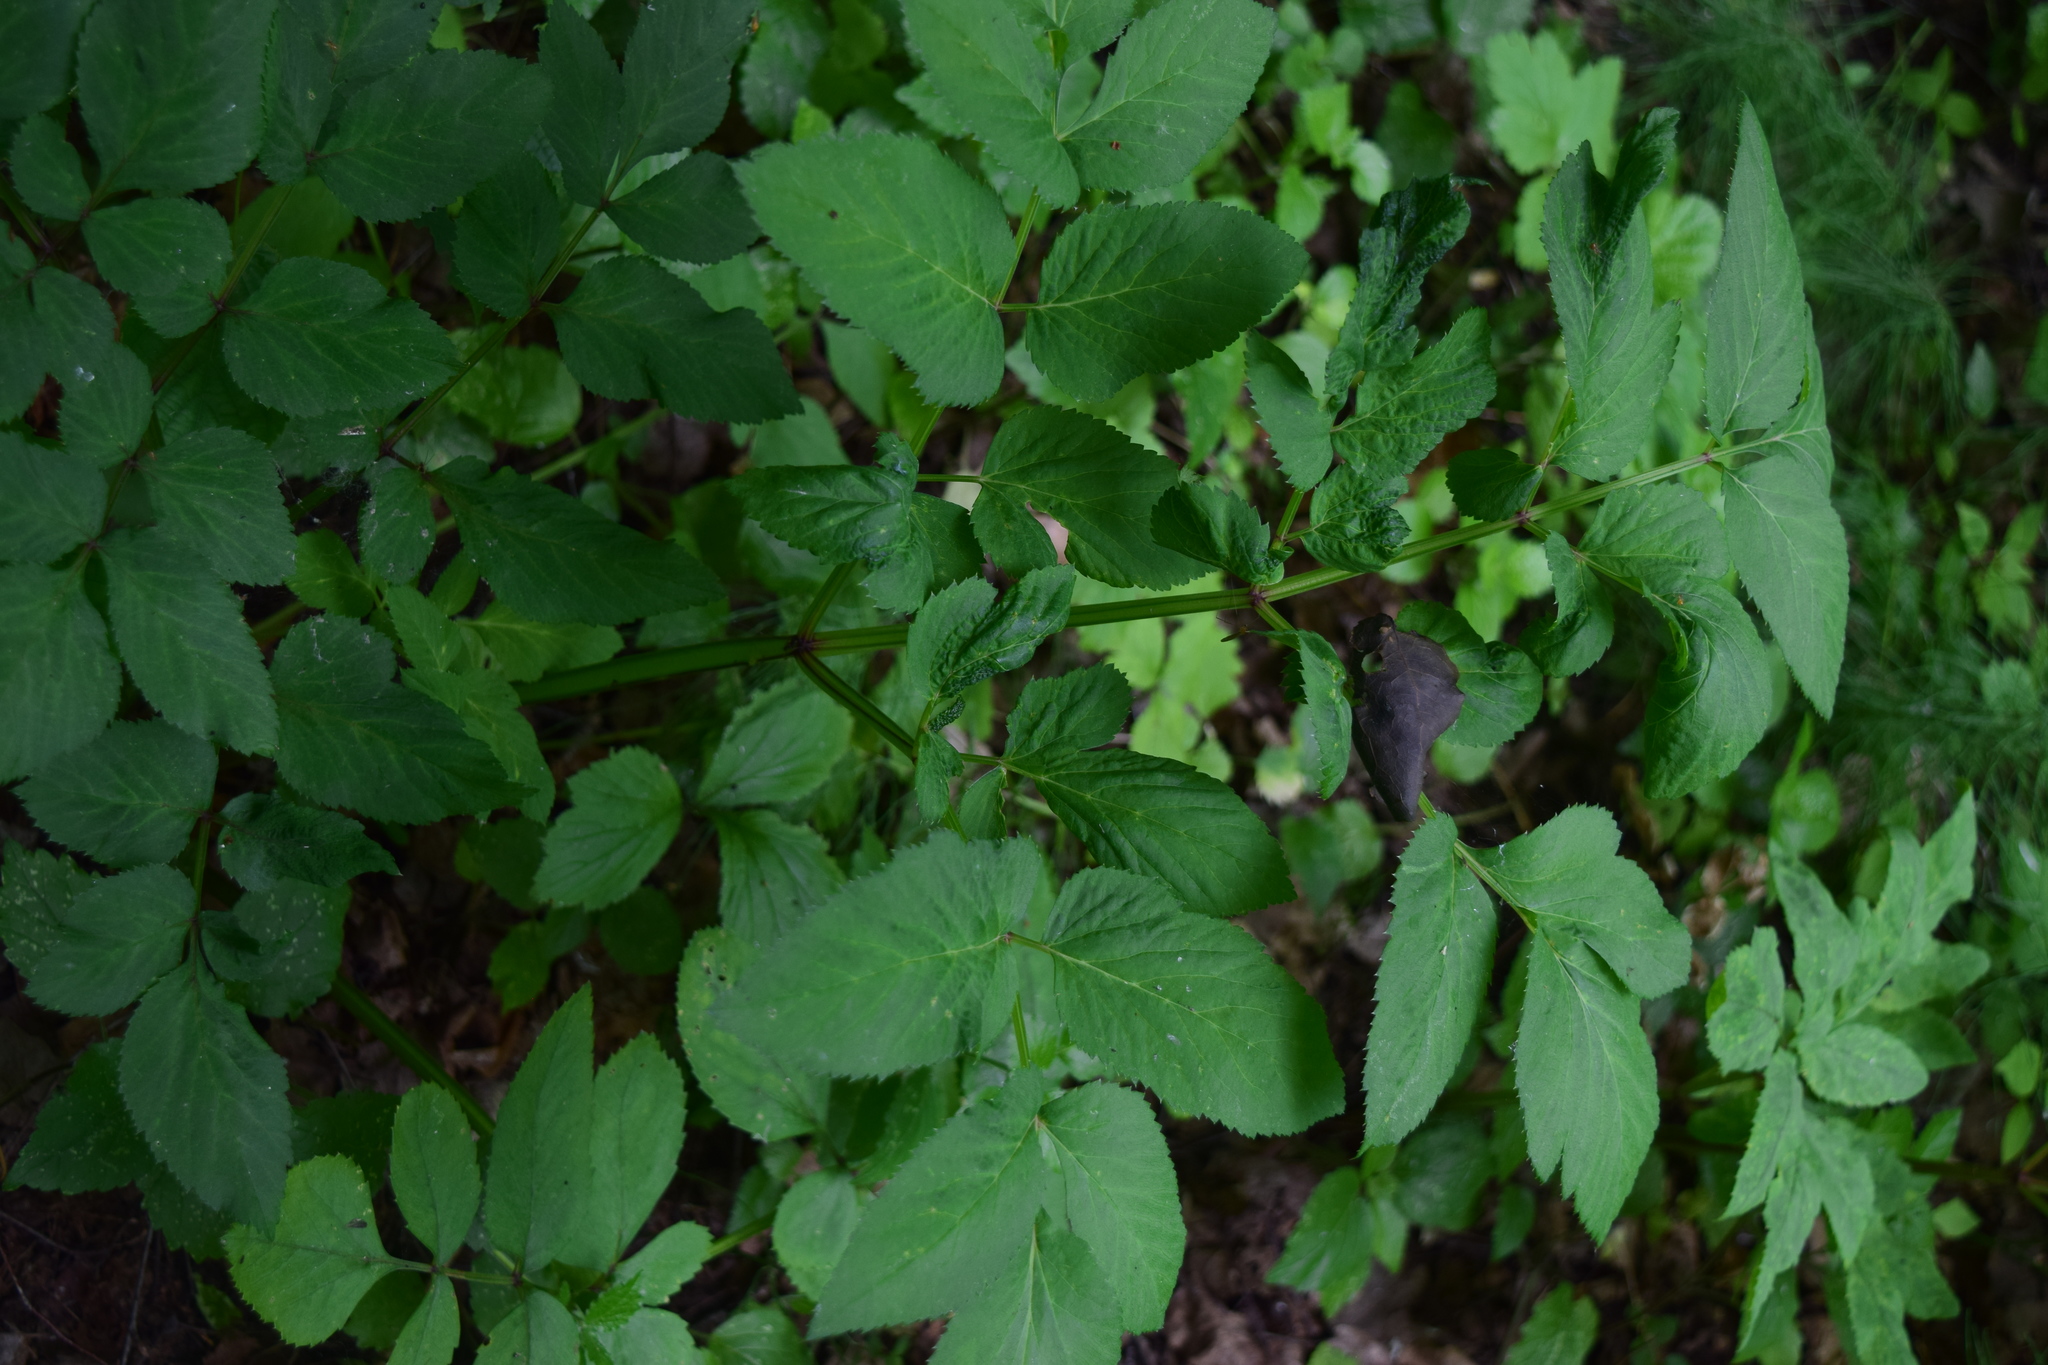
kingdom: Plantae
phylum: Tracheophyta
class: Magnoliopsida
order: Apiales
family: Apiaceae
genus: Angelica
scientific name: Angelica sylvestris
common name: Wild angelica
